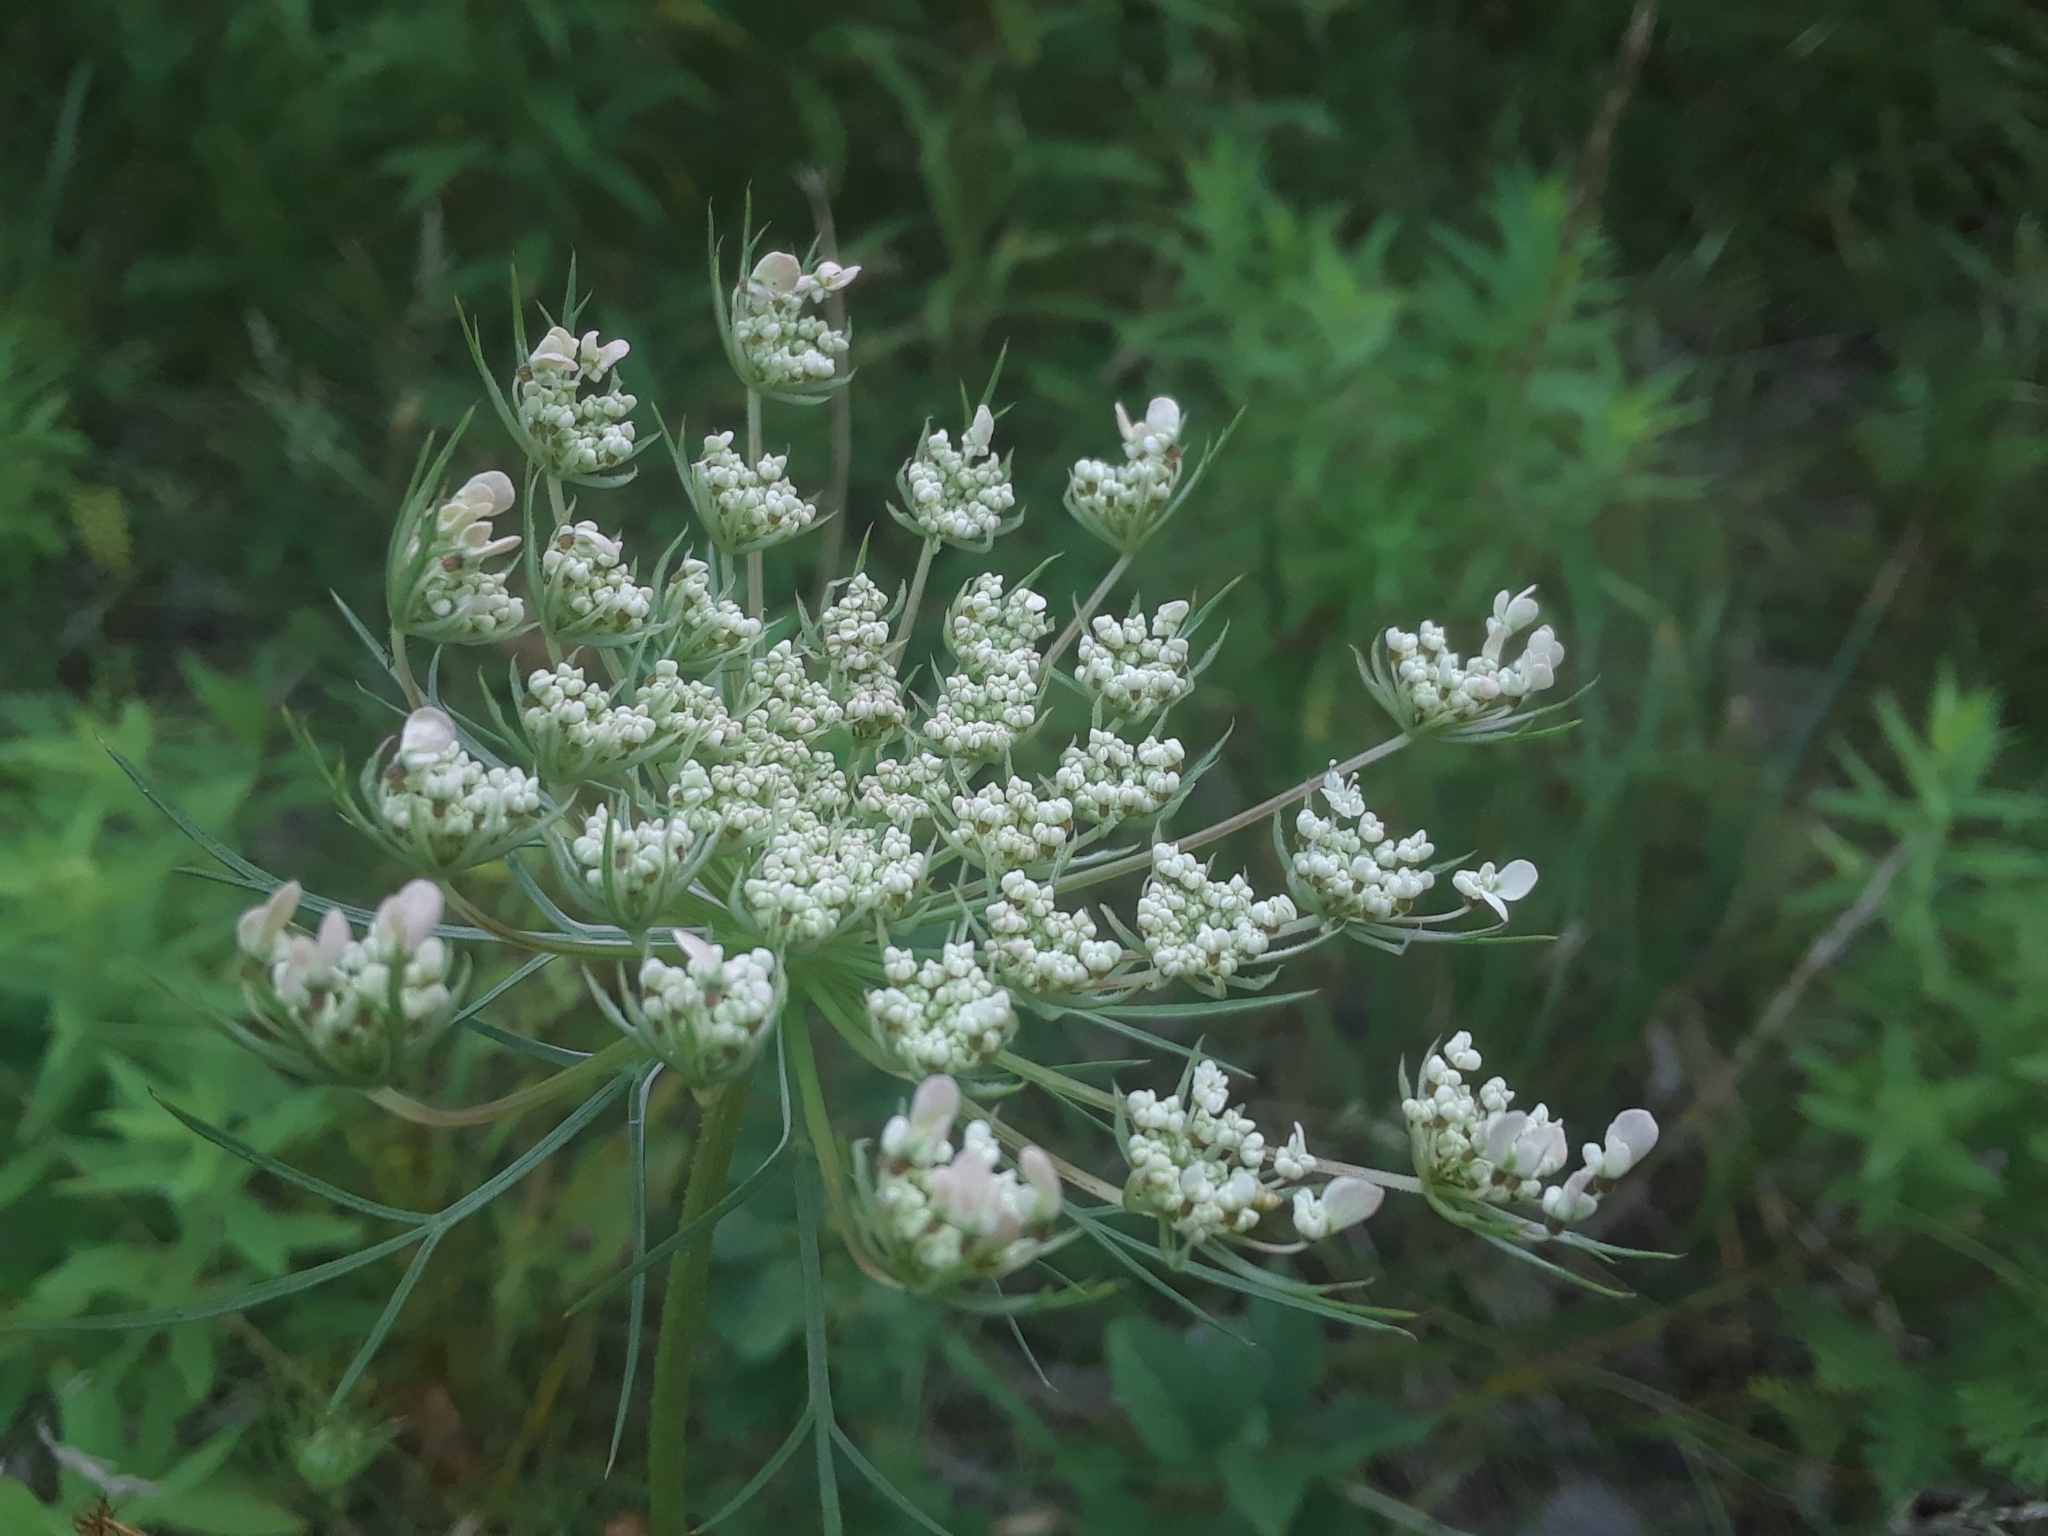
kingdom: Plantae
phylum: Tracheophyta
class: Magnoliopsida
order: Apiales
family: Apiaceae
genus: Daucus
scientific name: Daucus carota
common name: Wild carrot
